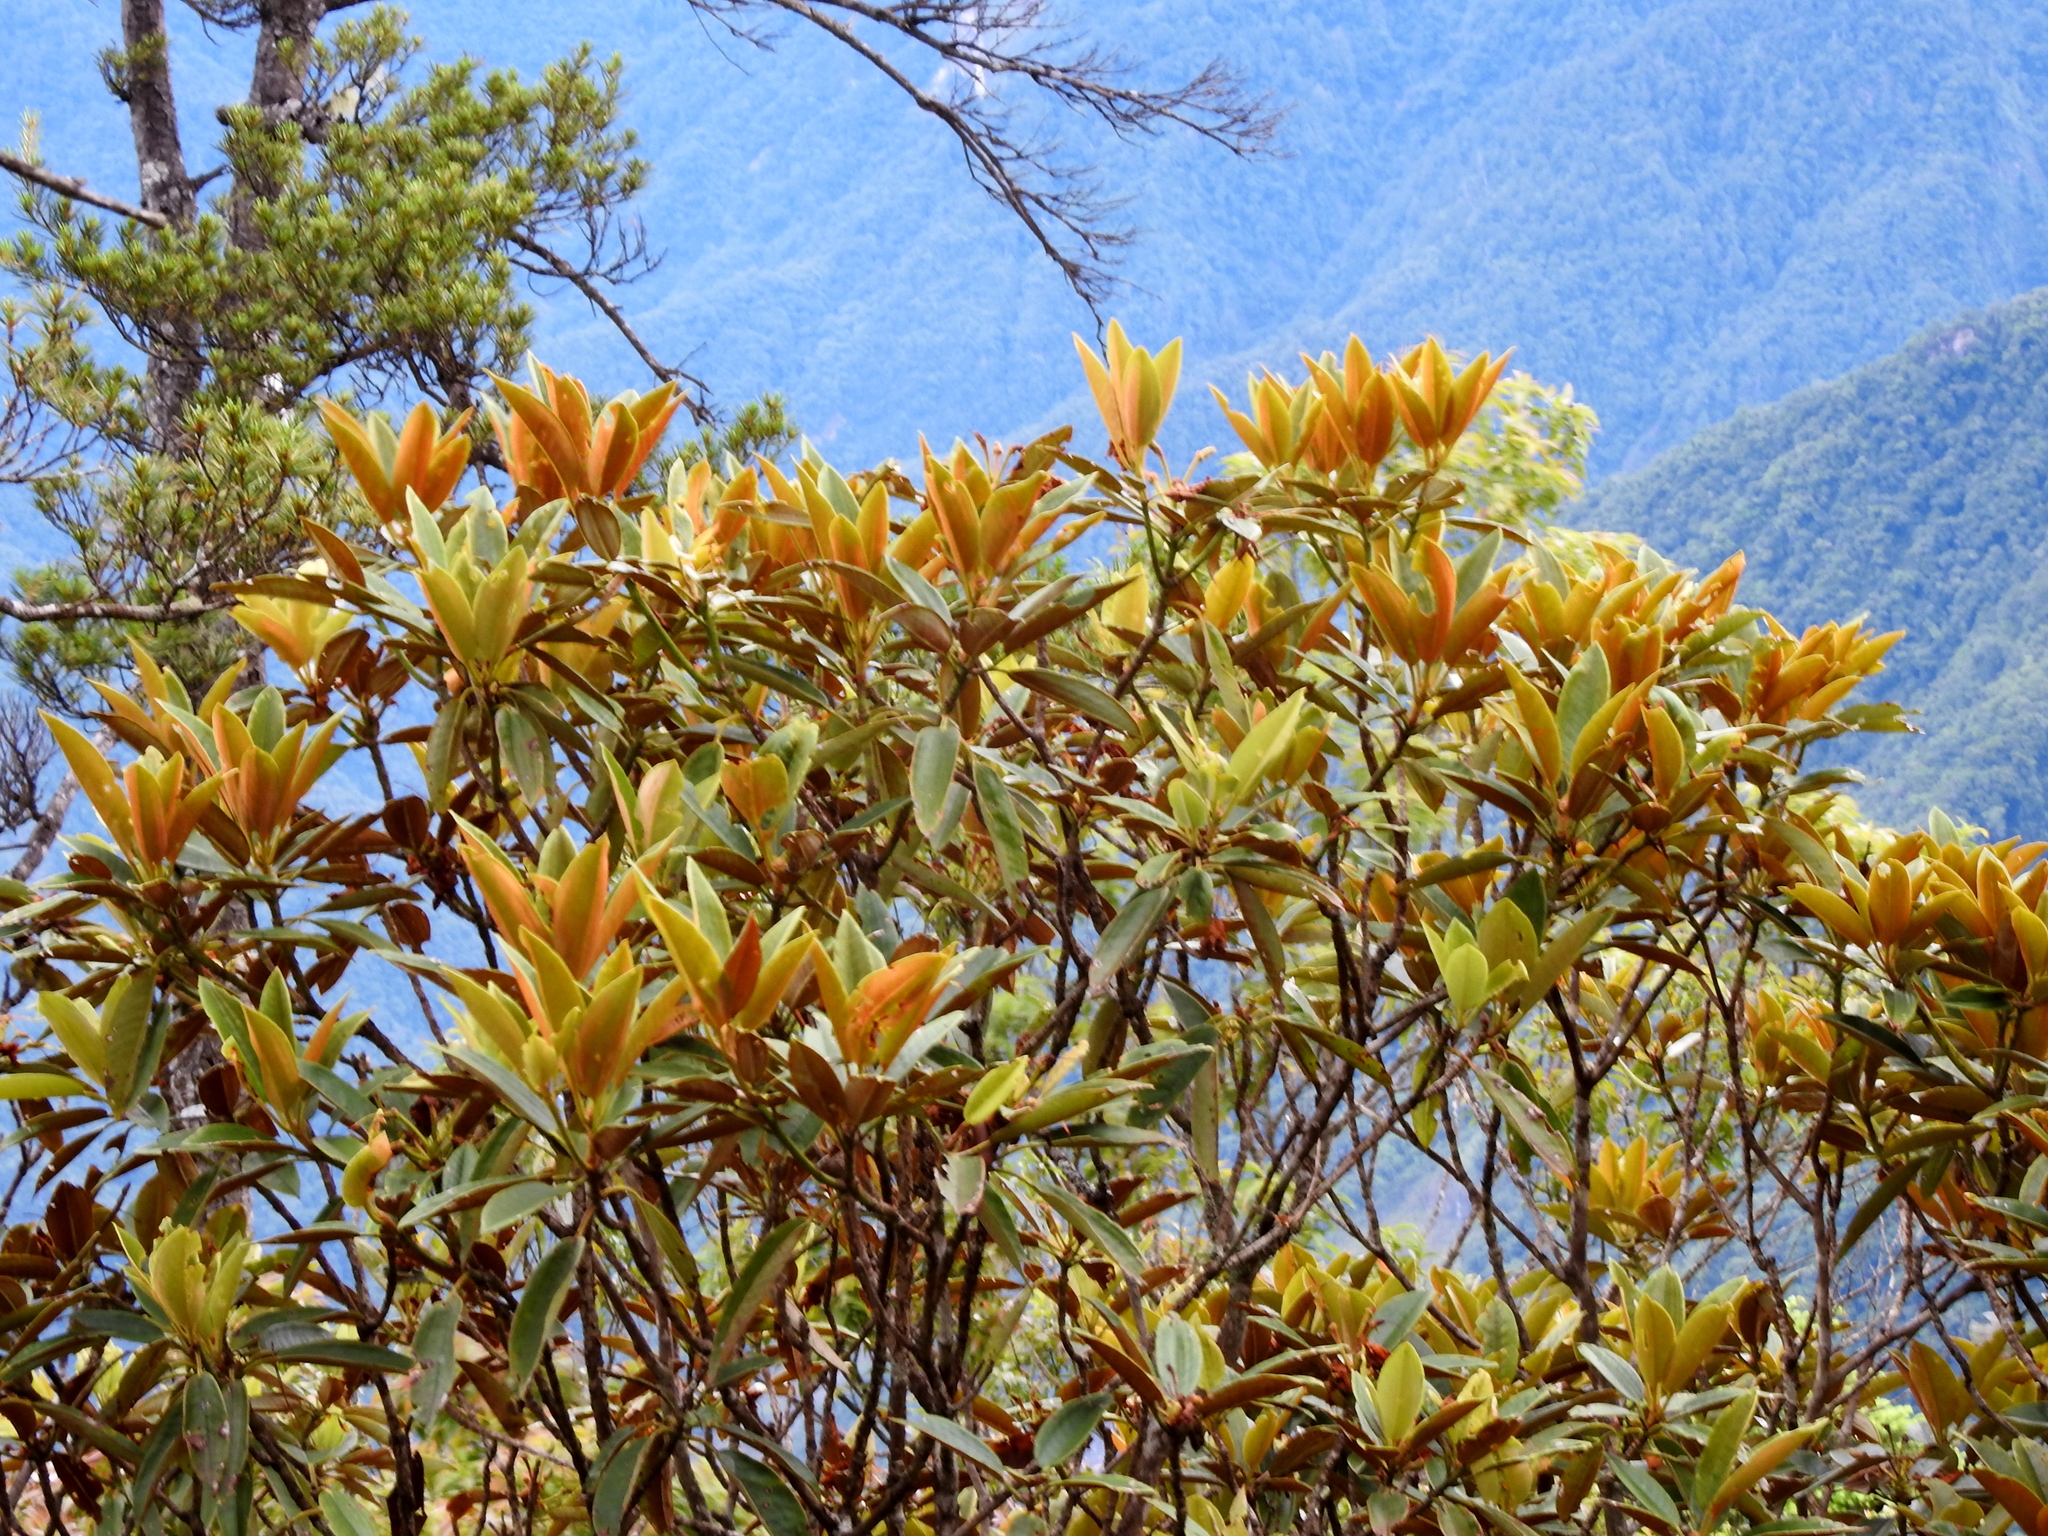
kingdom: Plantae
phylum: Tracheophyta
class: Magnoliopsida
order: Ericales
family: Ericaceae
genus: Rhododendron
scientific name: Rhododendron hyperythrum
